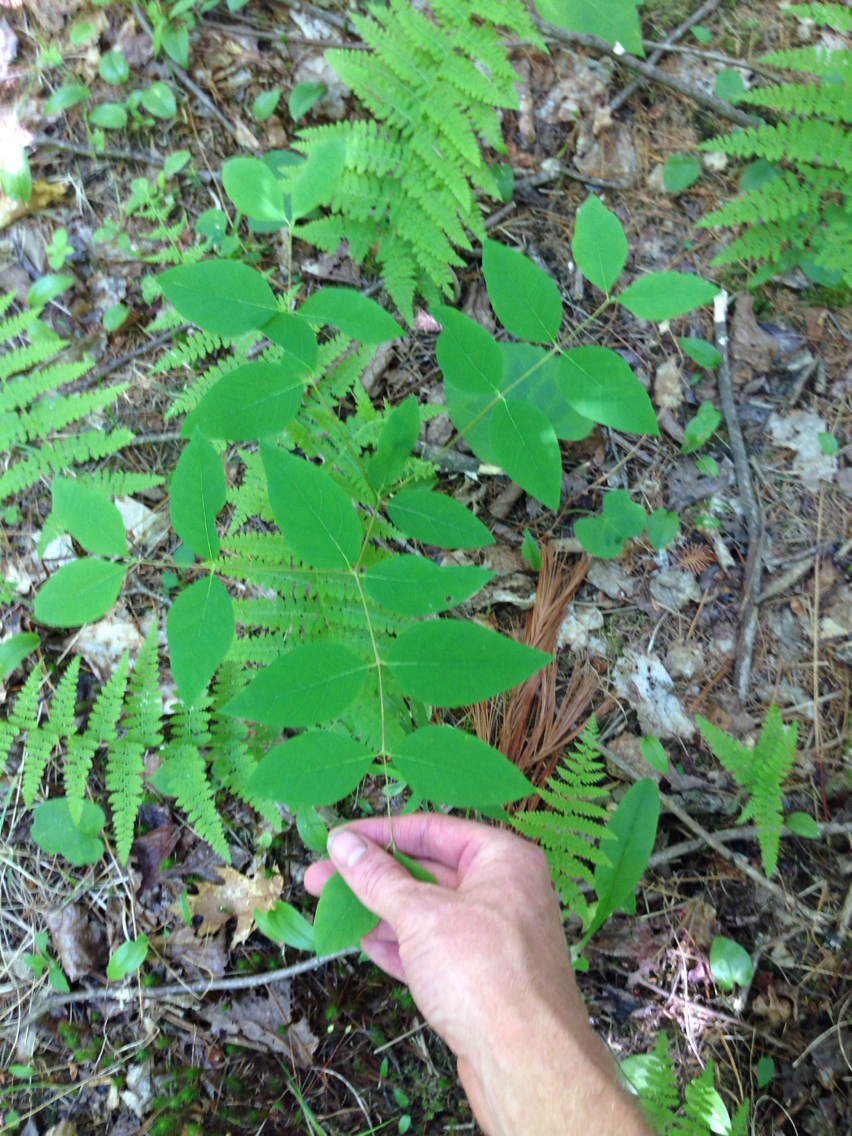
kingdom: Plantae
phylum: Tracheophyta
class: Magnoliopsida
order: Gentianales
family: Apocynaceae
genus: Apocynum
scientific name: Apocynum androsaemifolium
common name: Spreading dogbane
